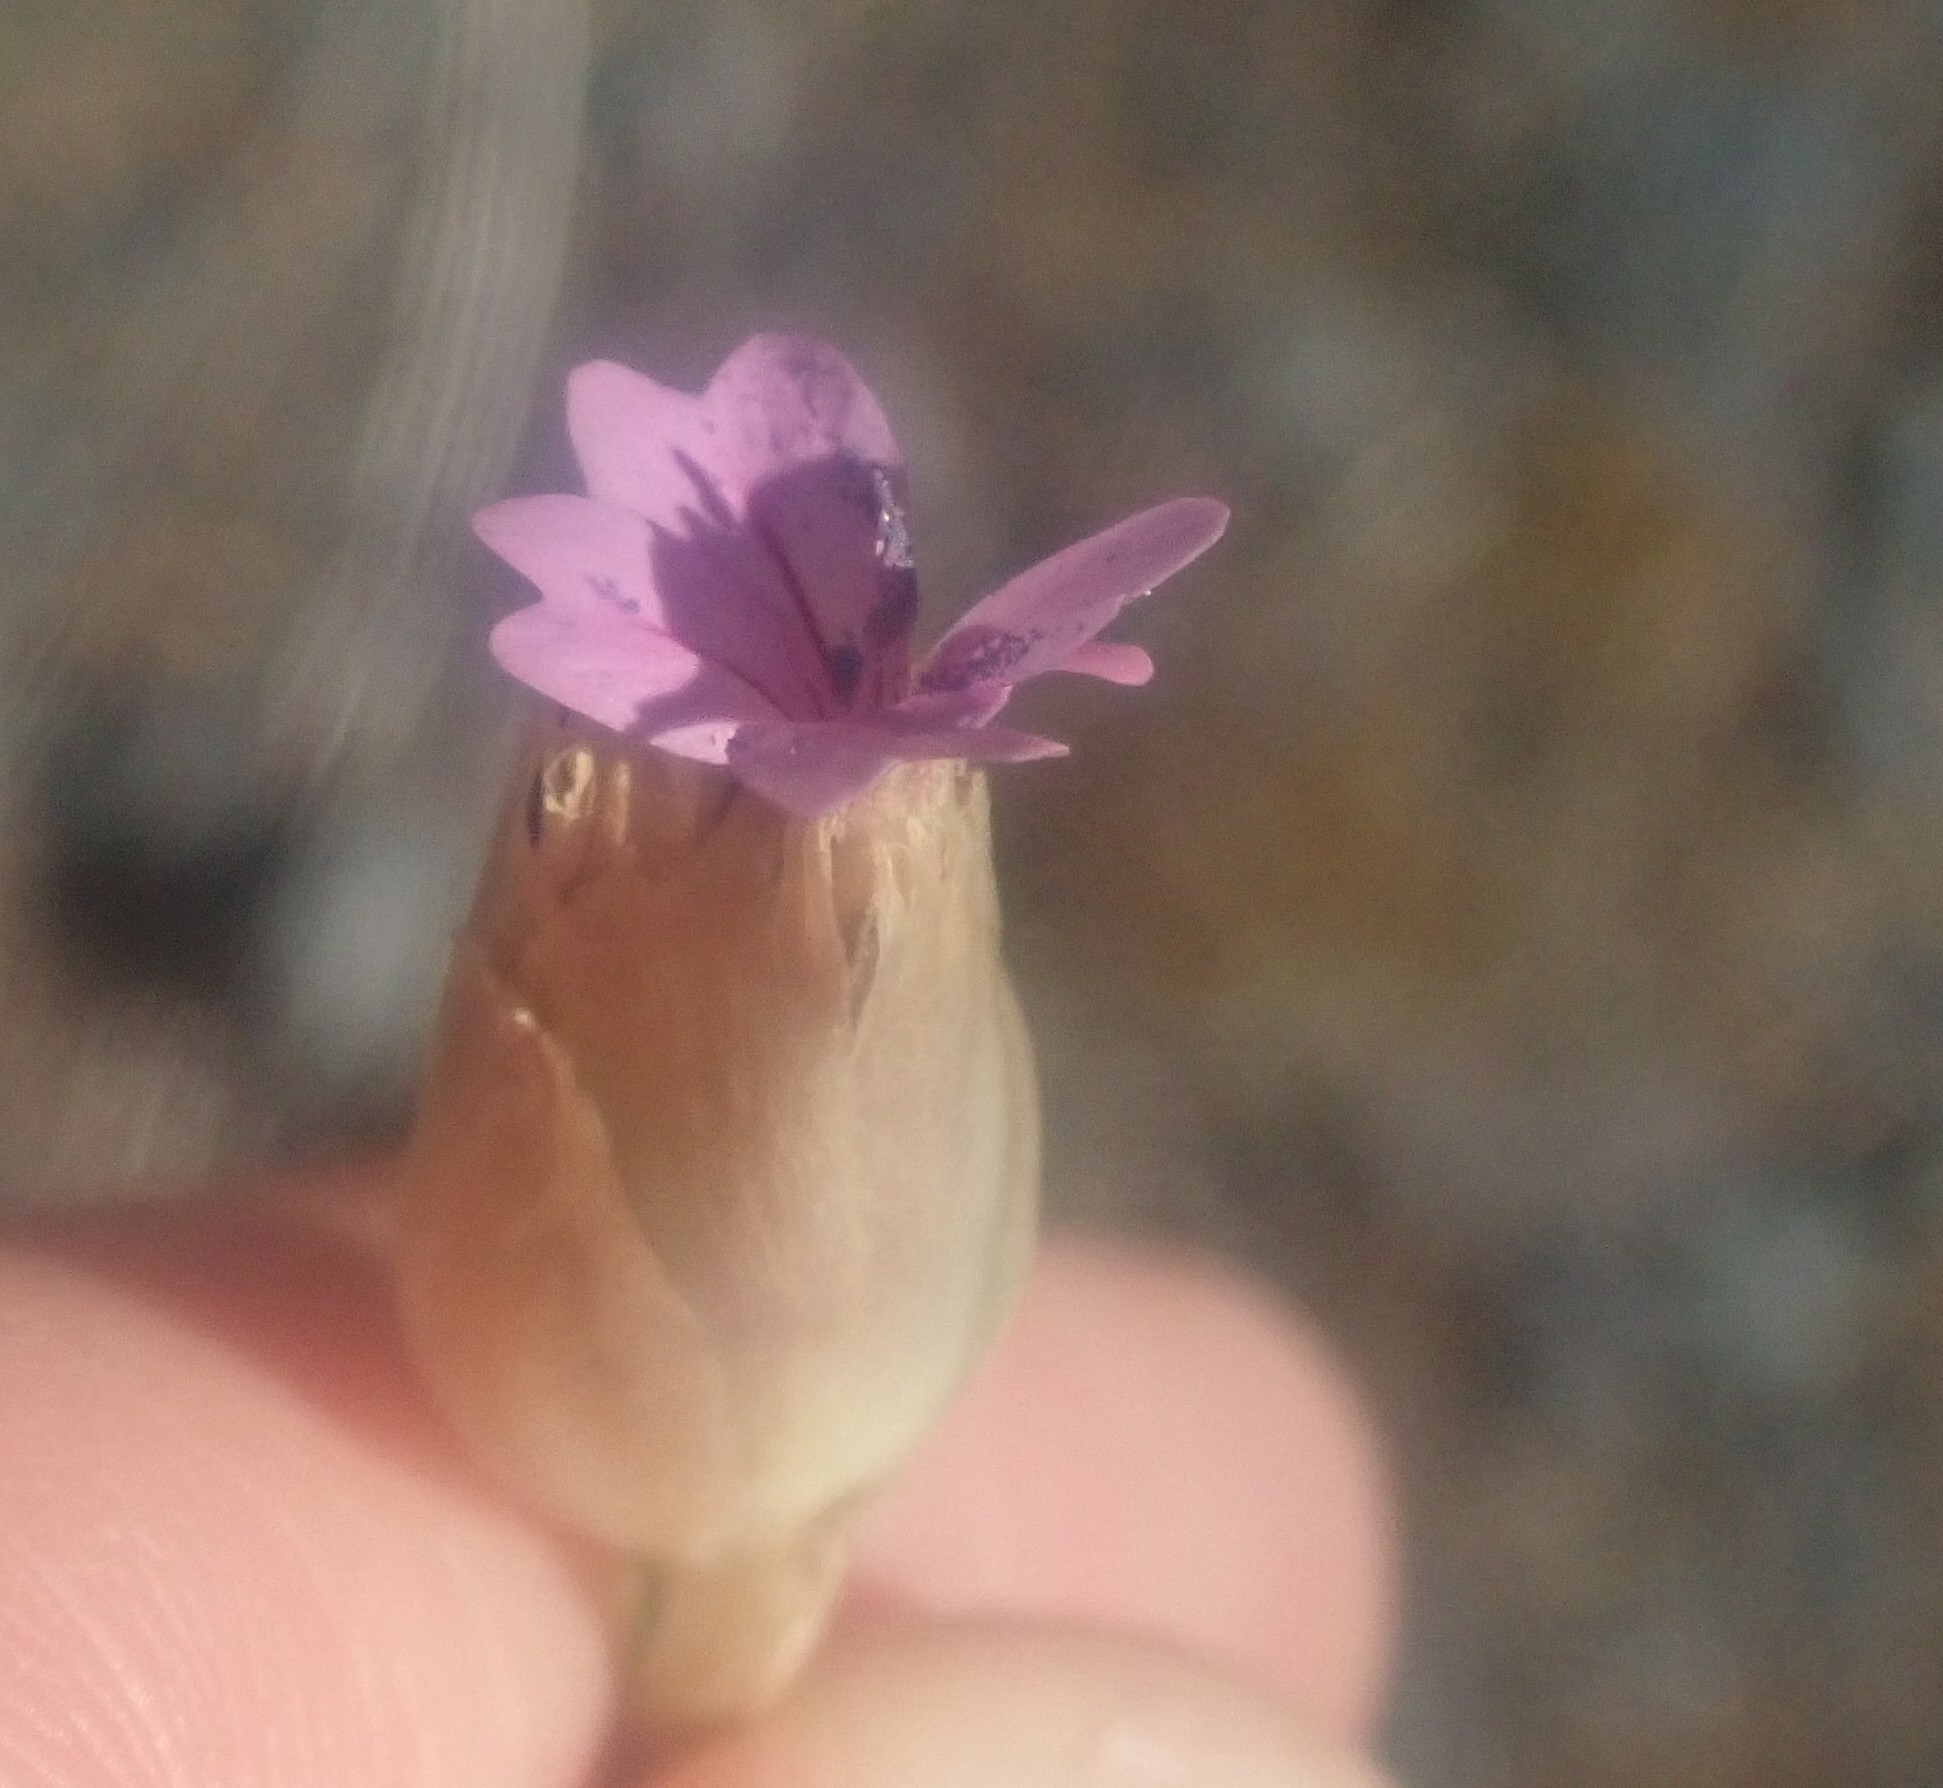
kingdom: Plantae
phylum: Tracheophyta
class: Magnoliopsida
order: Caryophyllales
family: Caryophyllaceae
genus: Petrorhagia
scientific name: Petrorhagia nanteuilii
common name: Proliferous pink
